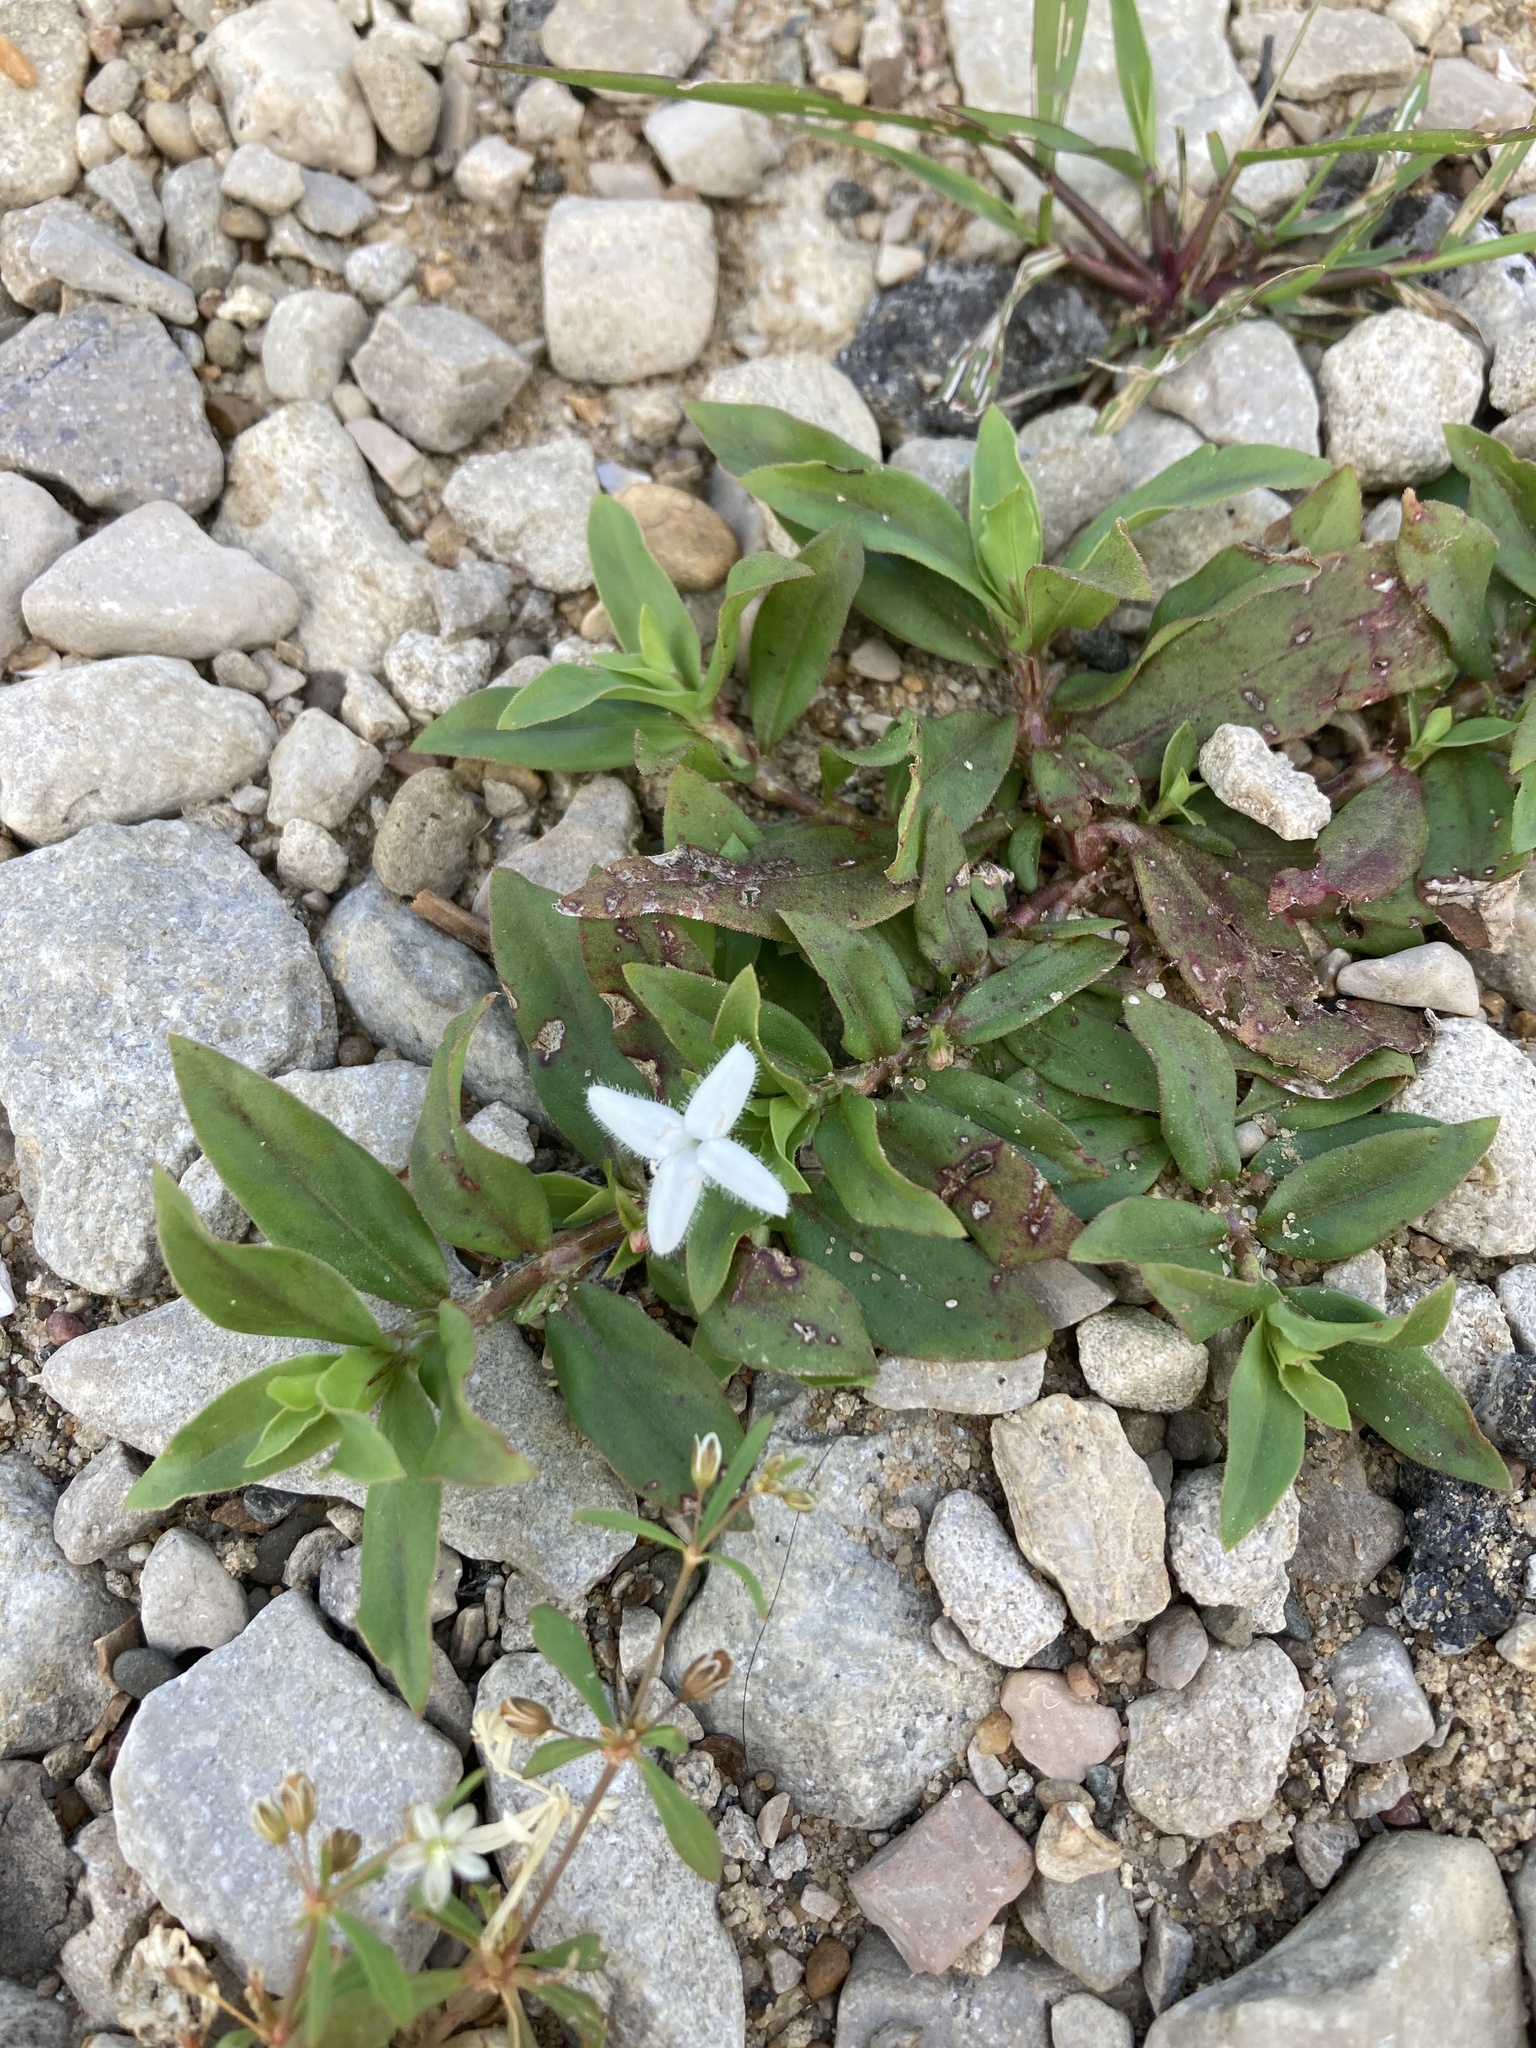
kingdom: Plantae
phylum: Tracheophyta
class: Magnoliopsida
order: Gentianales
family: Rubiaceae
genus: Diodia
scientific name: Diodia virginiana
